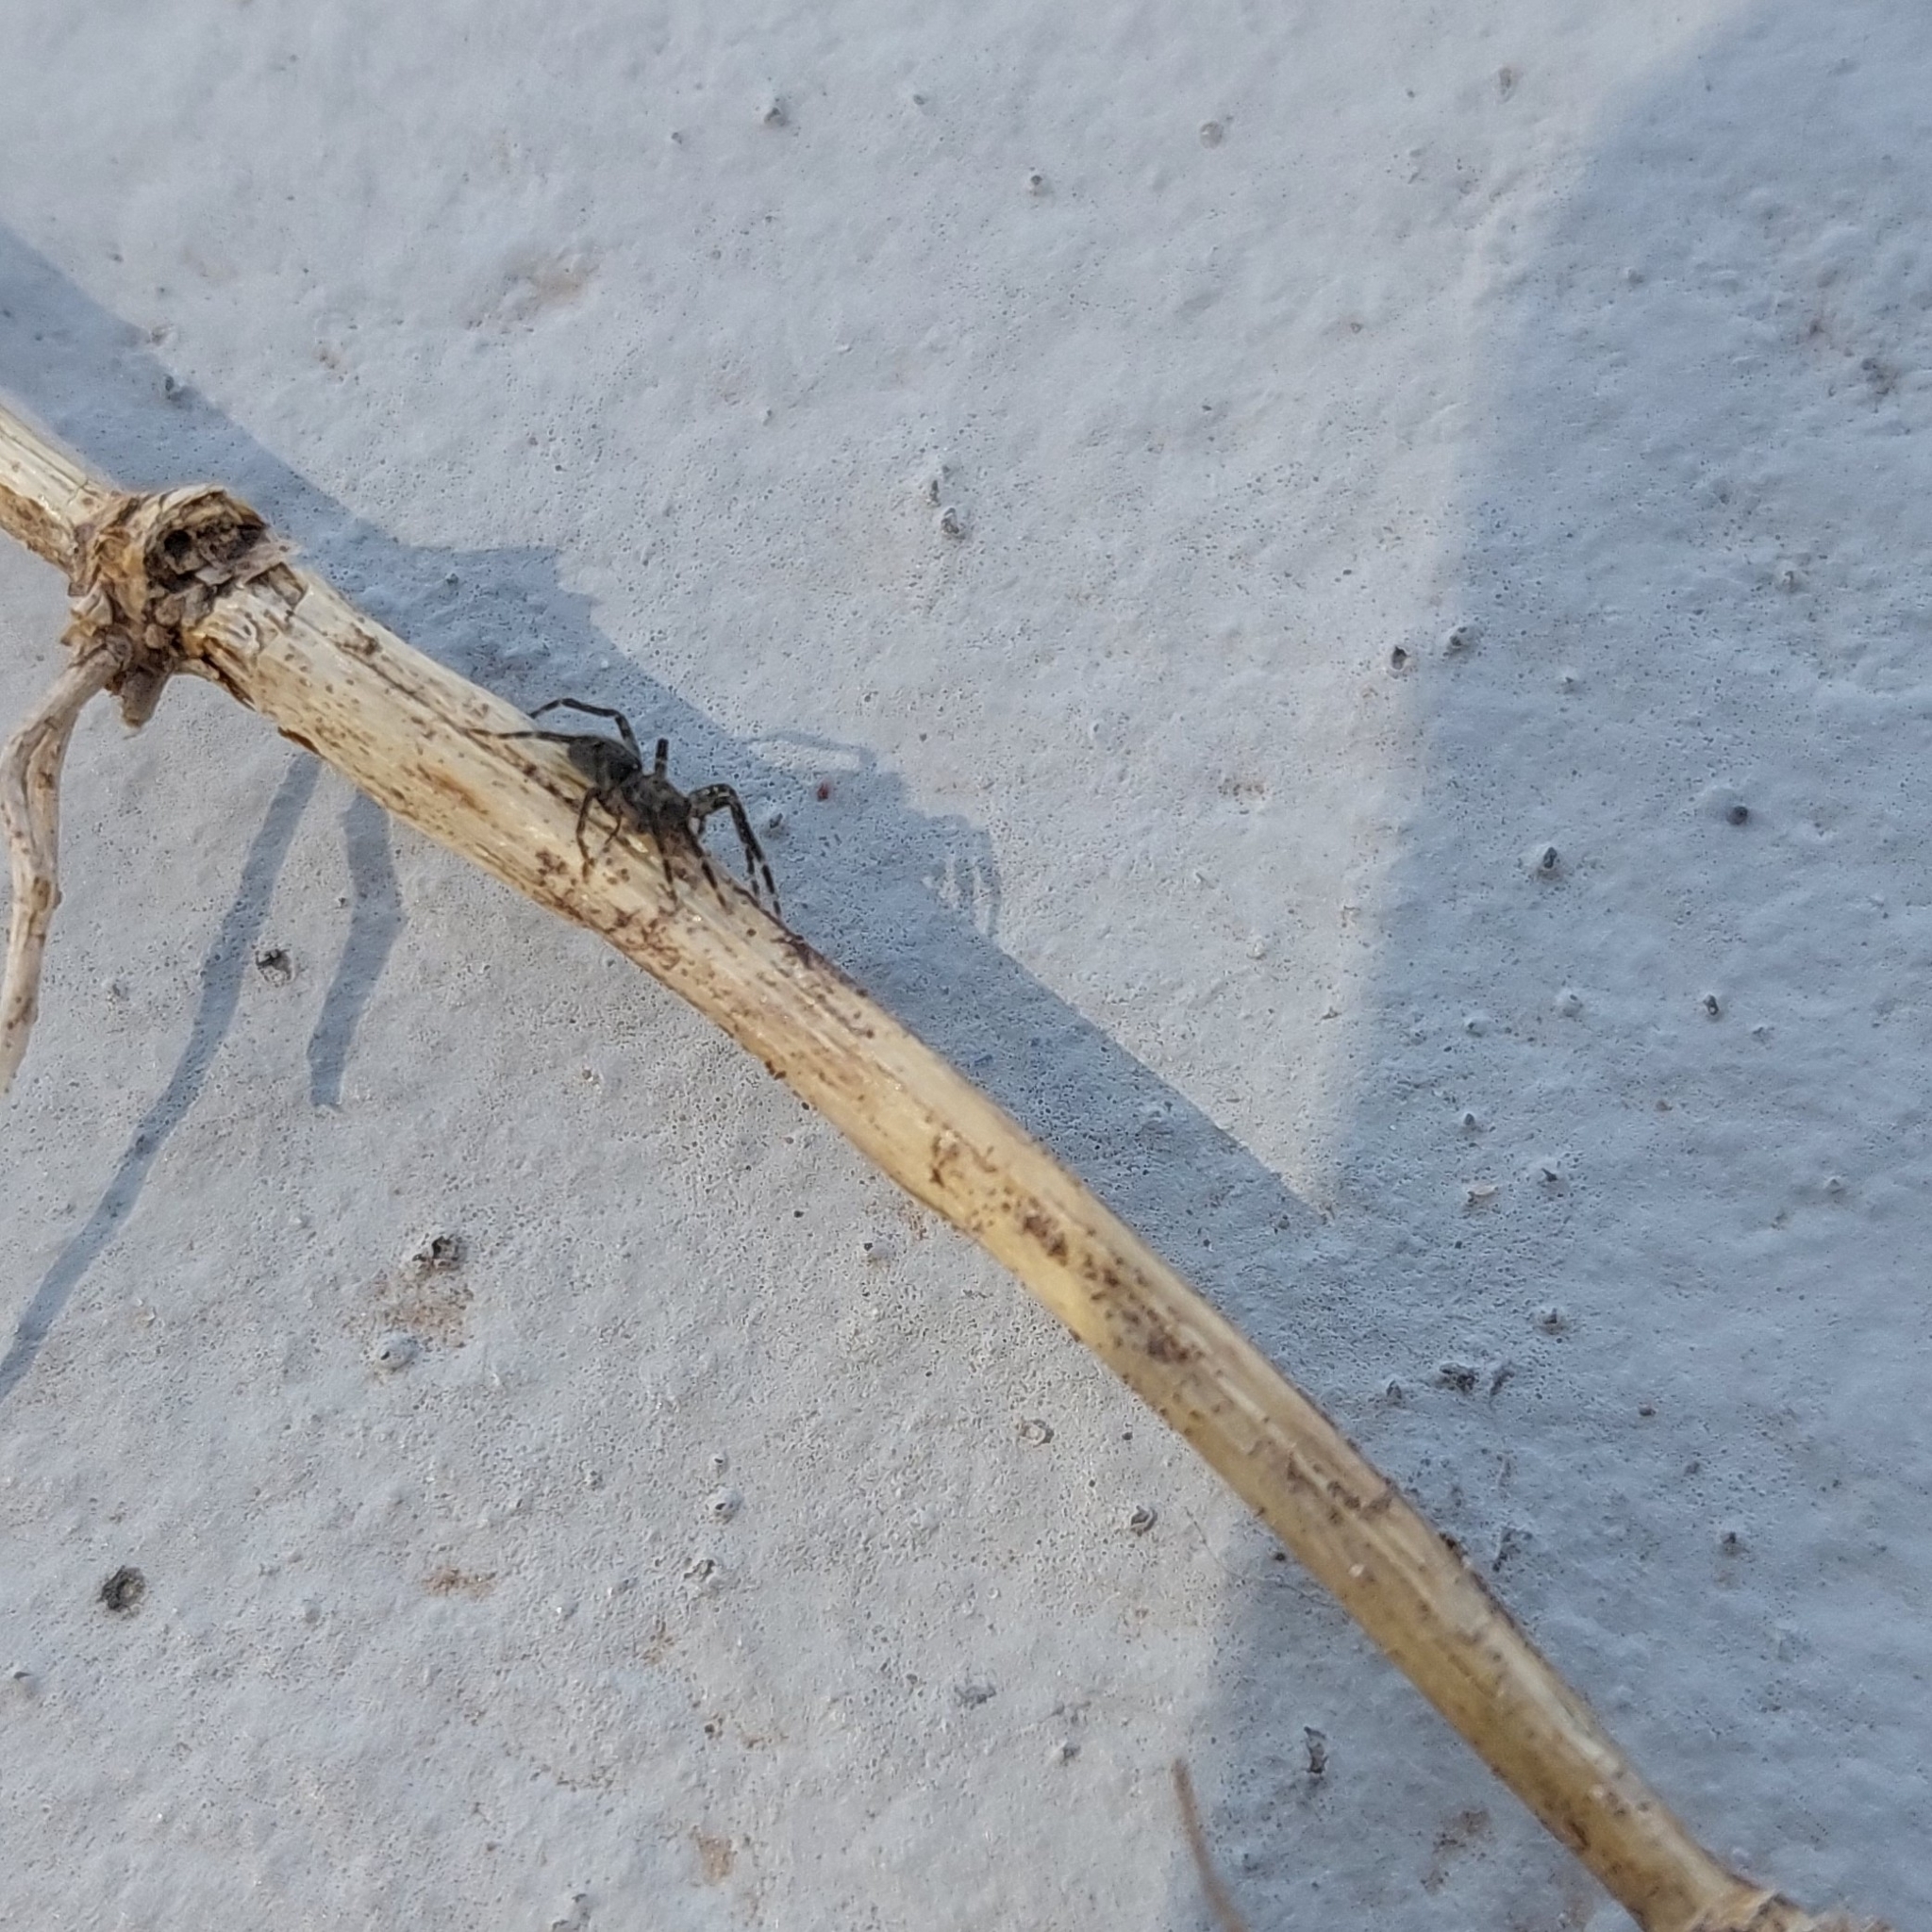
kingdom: Animalia
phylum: Arthropoda
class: Arachnida
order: Araneae
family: Ctenidae
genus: Asthenoctenus
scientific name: Asthenoctenus borellii
